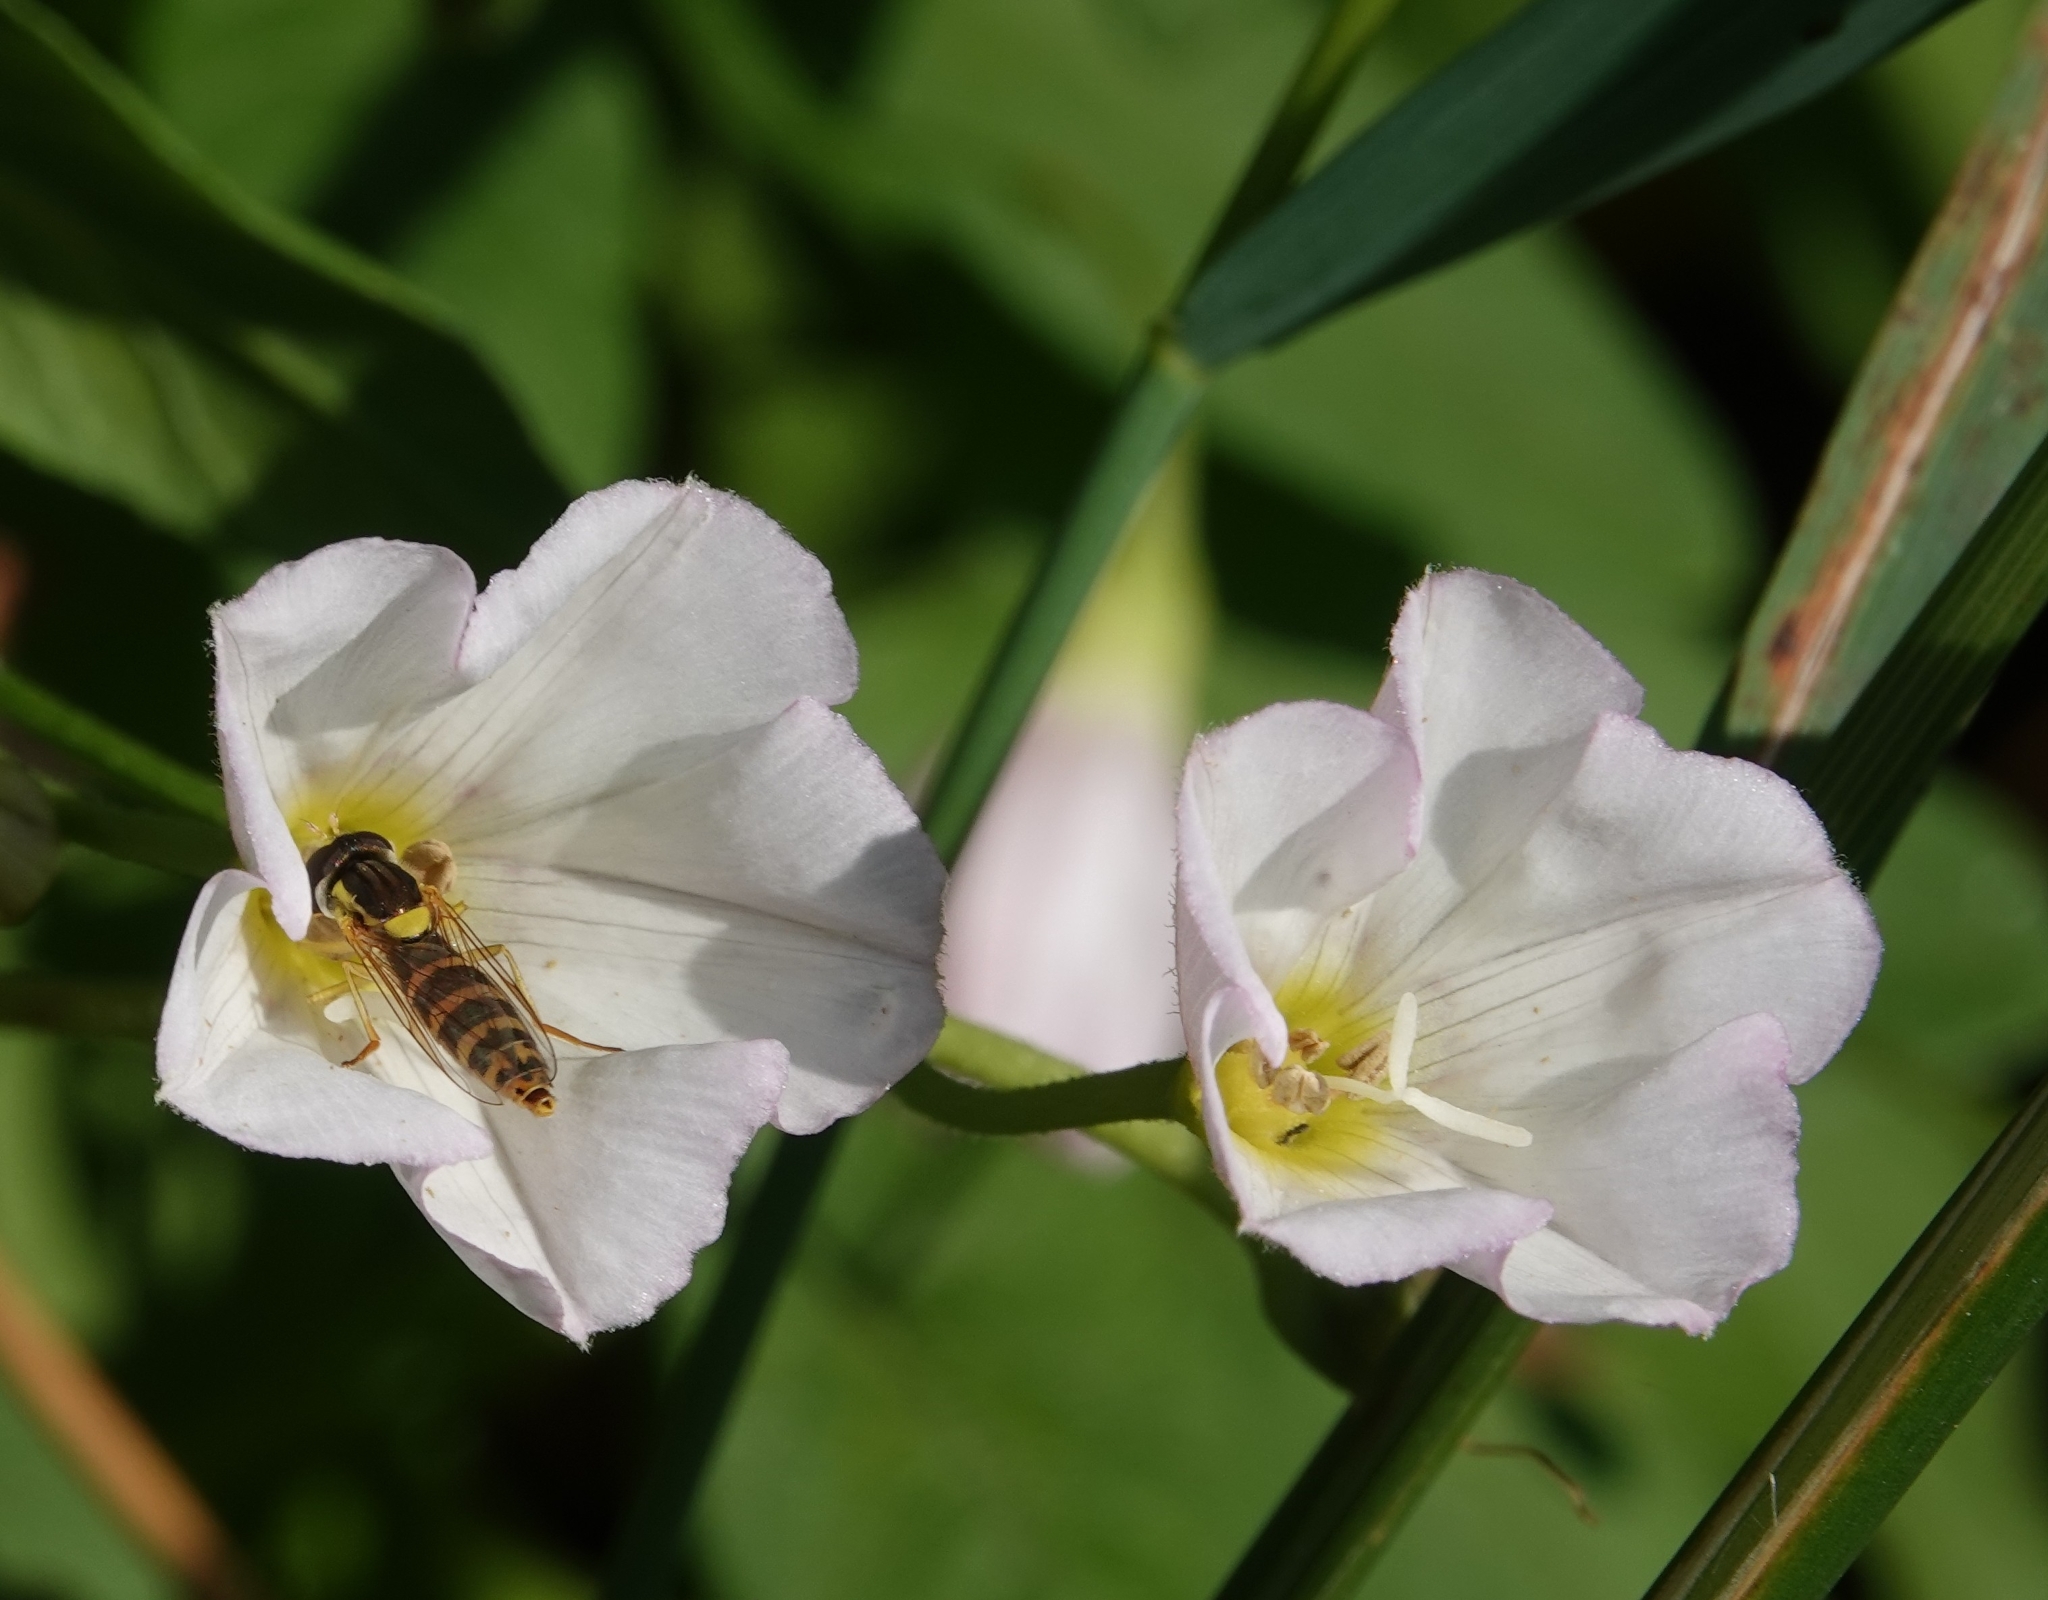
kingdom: Animalia
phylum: Arthropoda
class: Insecta
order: Diptera
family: Syrphidae
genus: Sphaerophoria
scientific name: Sphaerophoria
